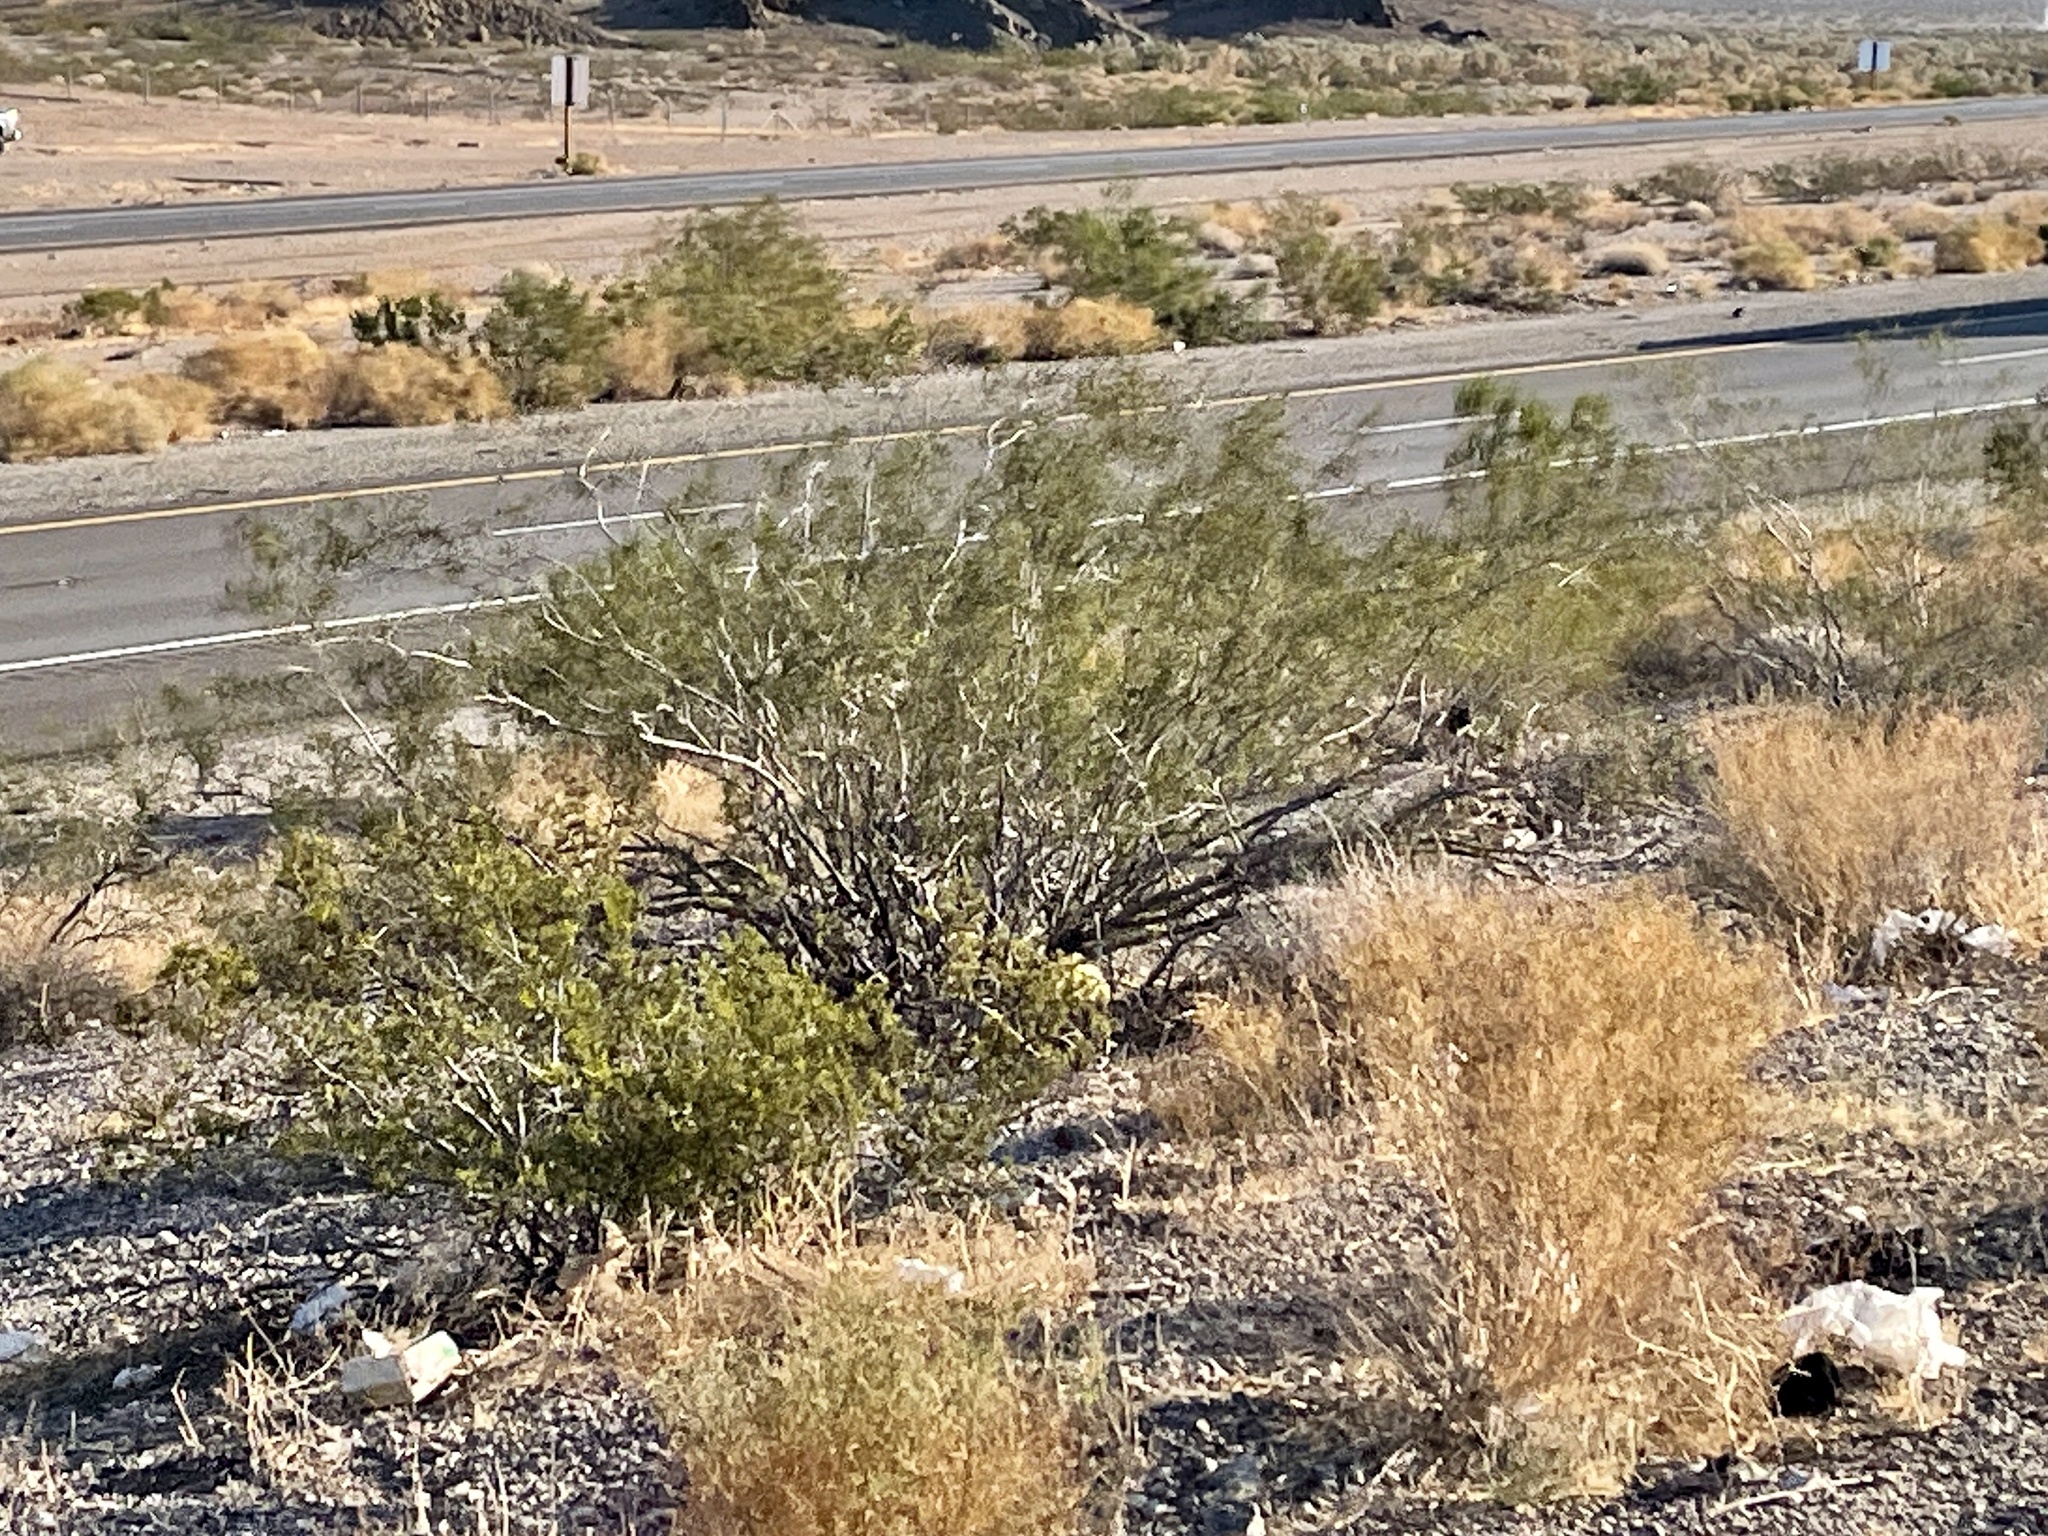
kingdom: Plantae
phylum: Tracheophyta
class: Magnoliopsida
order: Zygophyllales
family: Zygophyllaceae
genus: Larrea
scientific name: Larrea tridentata
